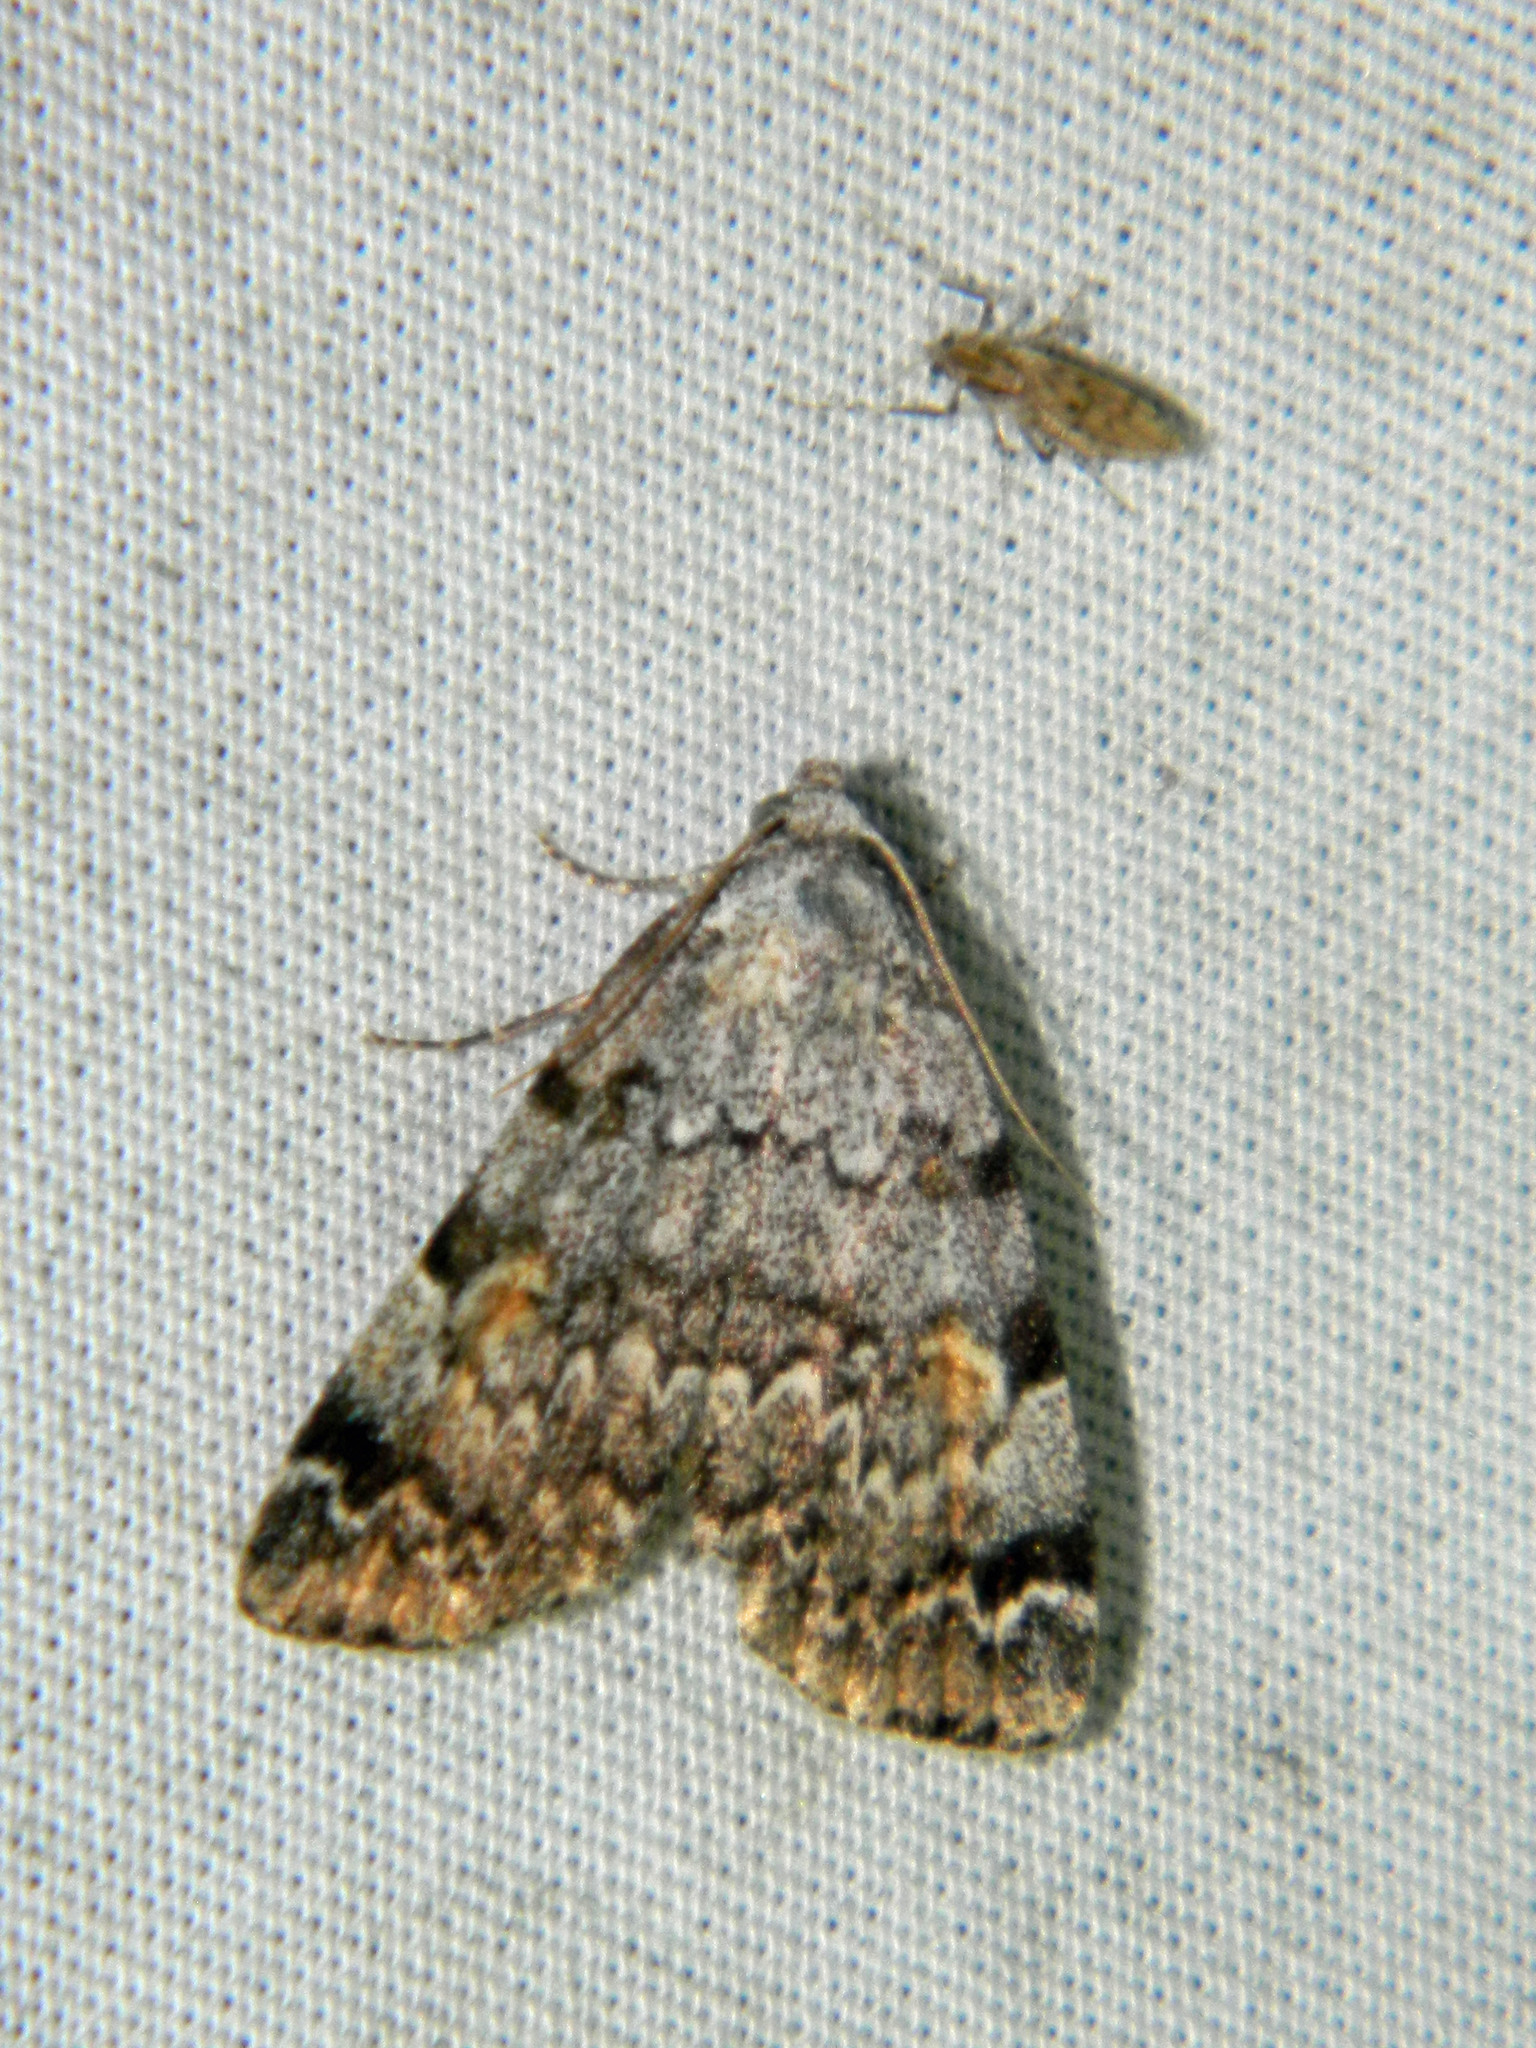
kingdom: Animalia
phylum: Arthropoda
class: Insecta
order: Lepidoptera
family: Erebidae
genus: Idia
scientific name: Idia americalis
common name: American idia moth
